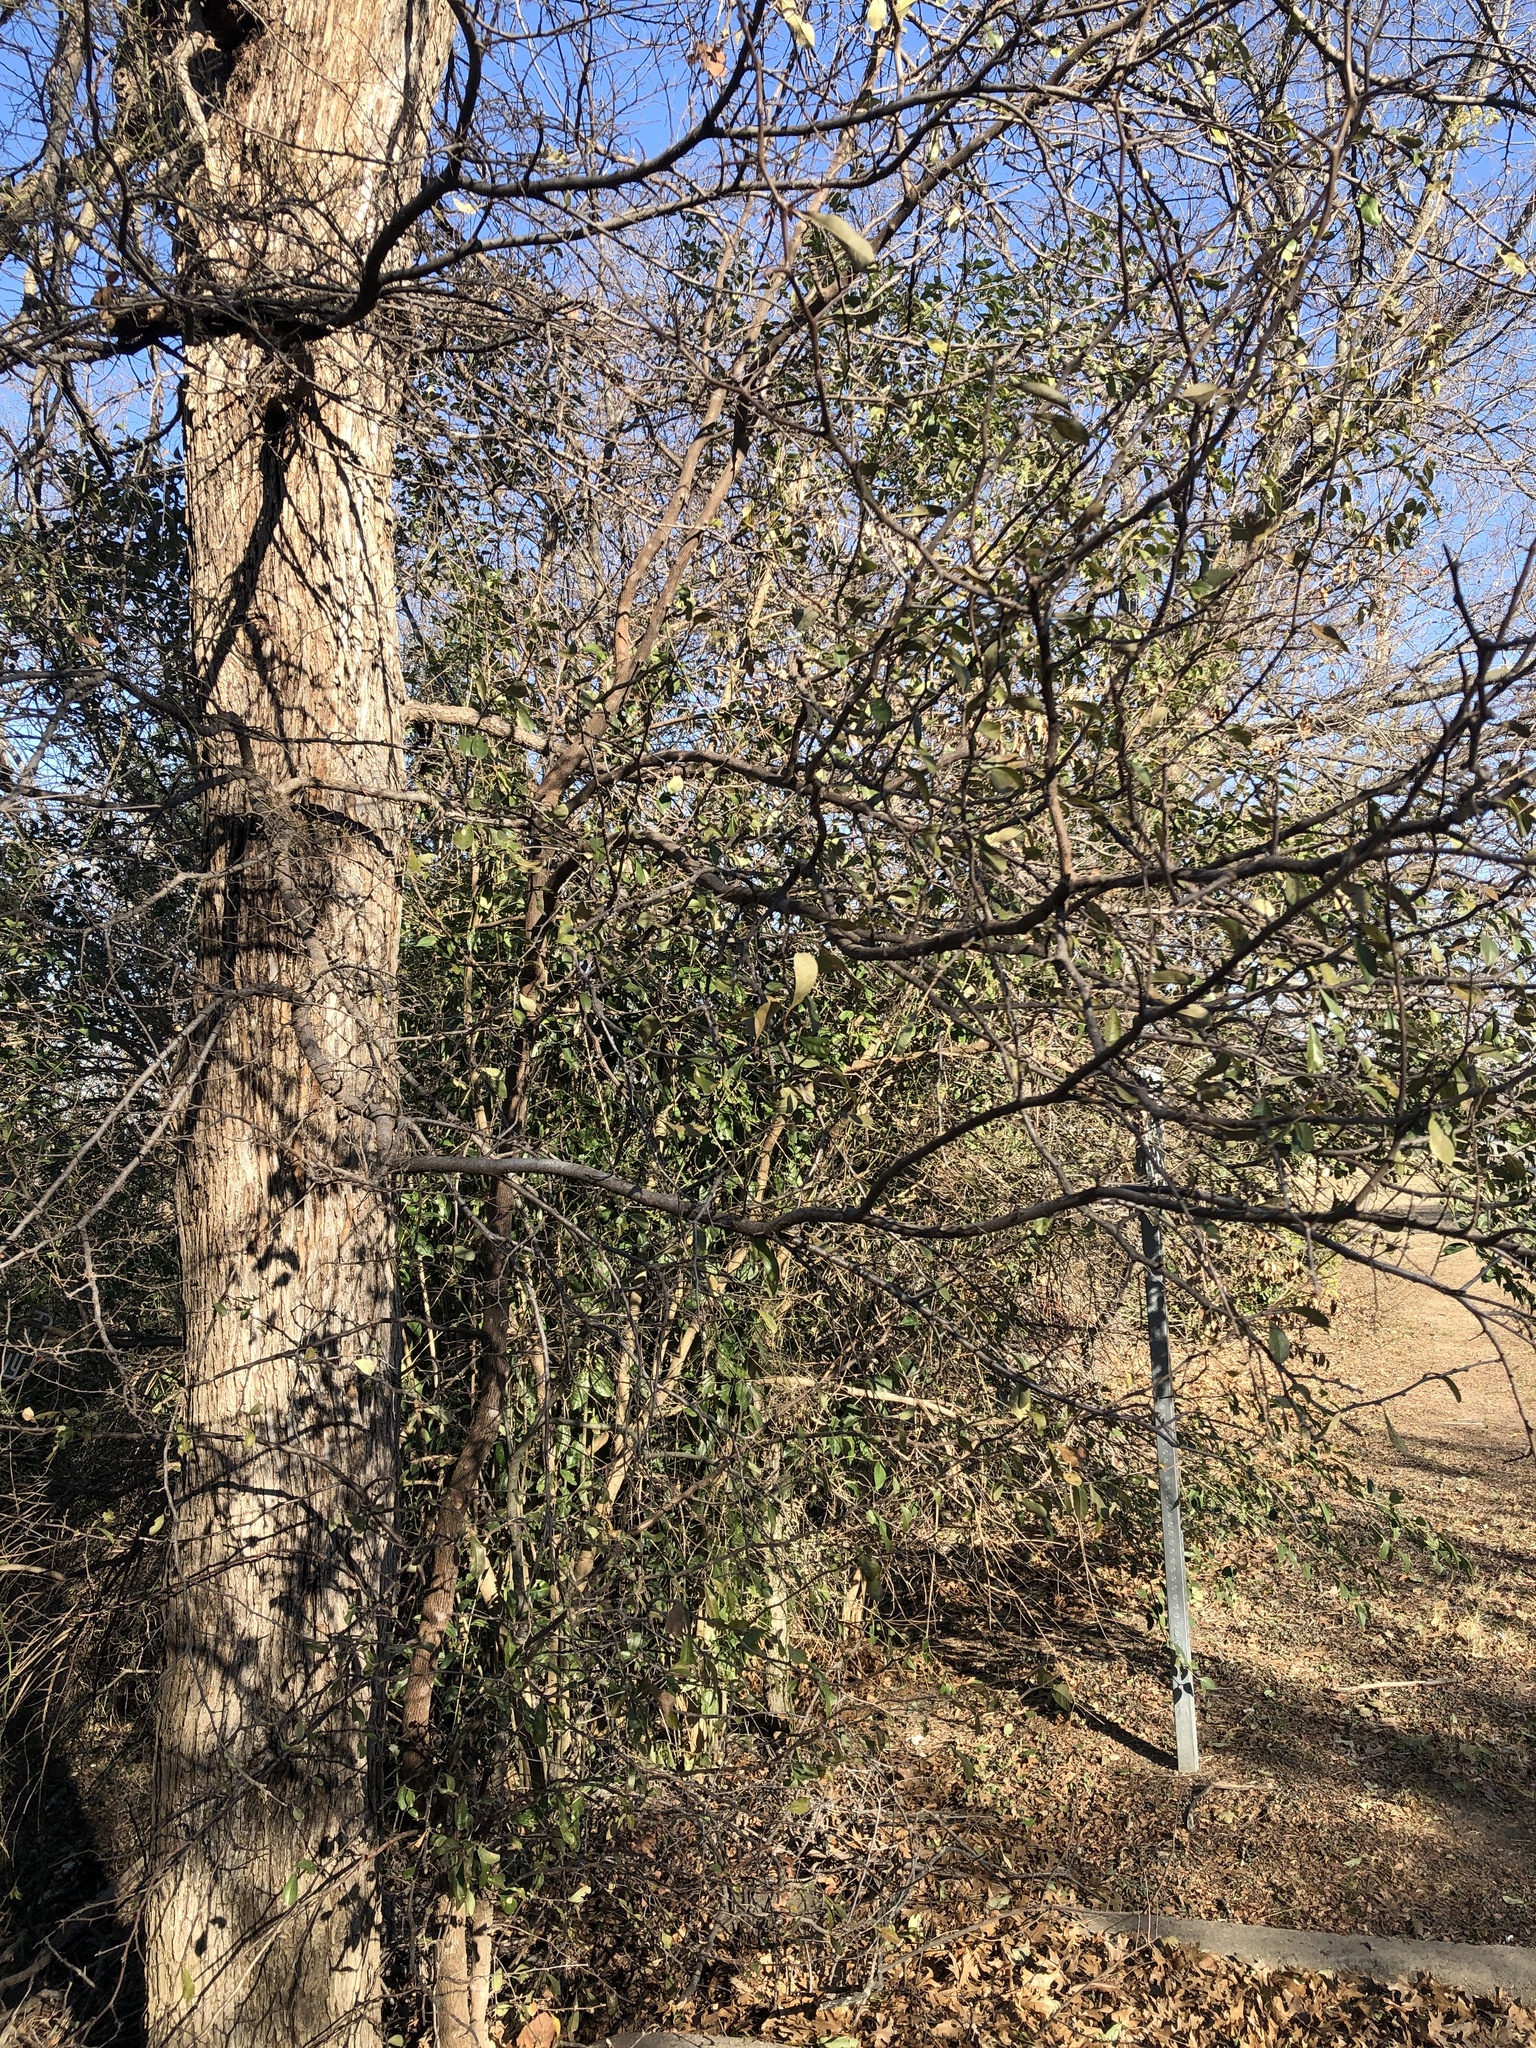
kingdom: Plantae
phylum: Tracheophyta
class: Magnoliopsida
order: Ericales
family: Sapotaceae
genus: Sideroxylon
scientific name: Sideroxylon lanuginosum
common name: Chittamwood
